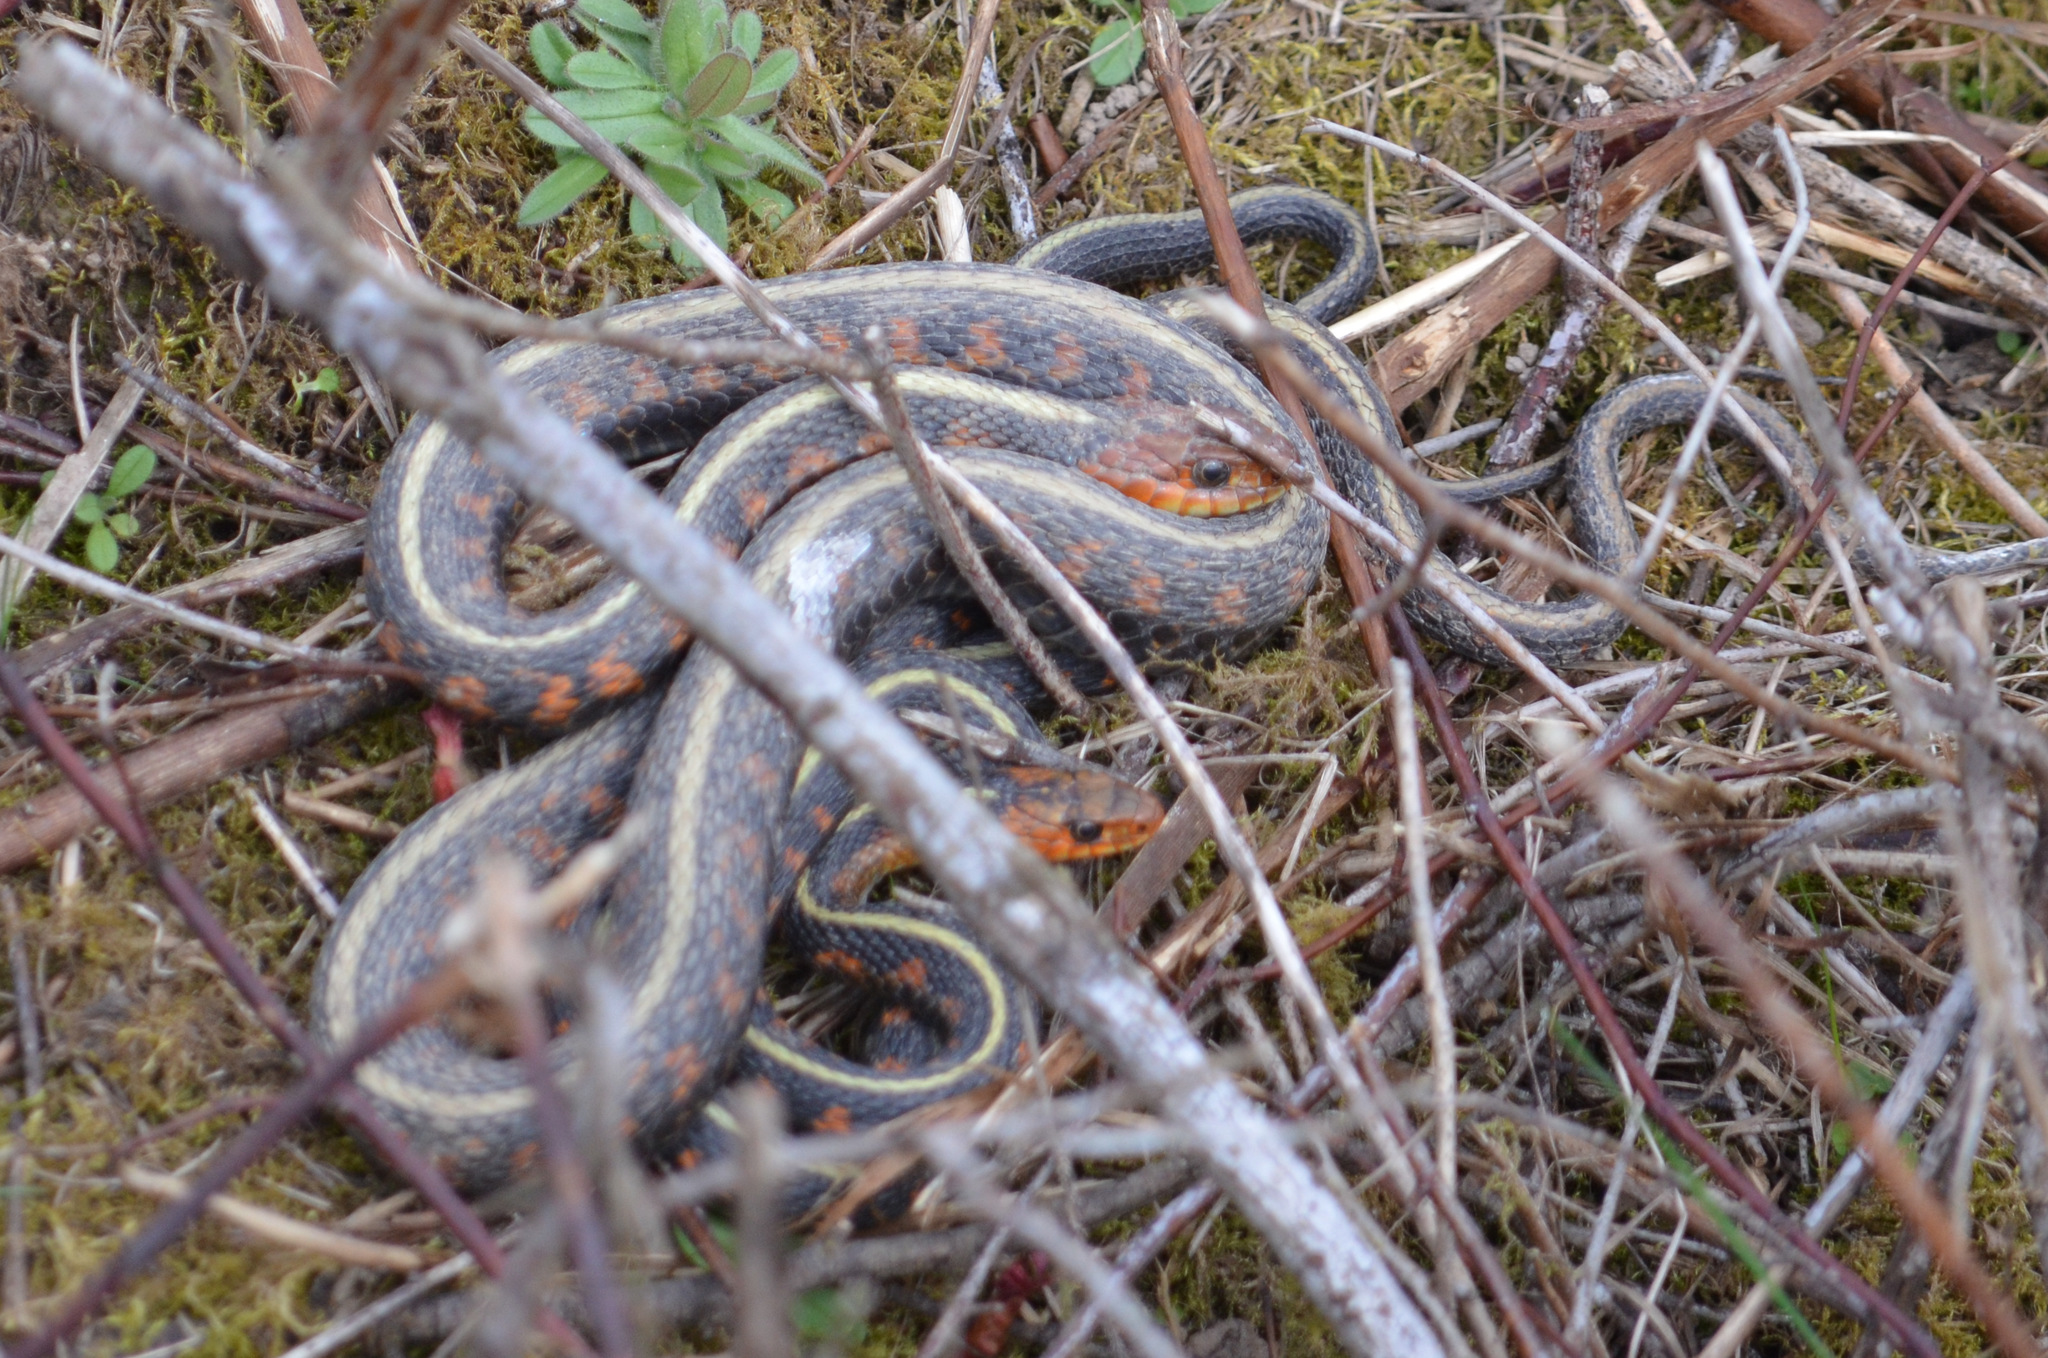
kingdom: Animalia
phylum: Chordata
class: Squamata
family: Colubridae
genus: Thamnophis
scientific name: Thamnophis sirtalis
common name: Common garter snake
